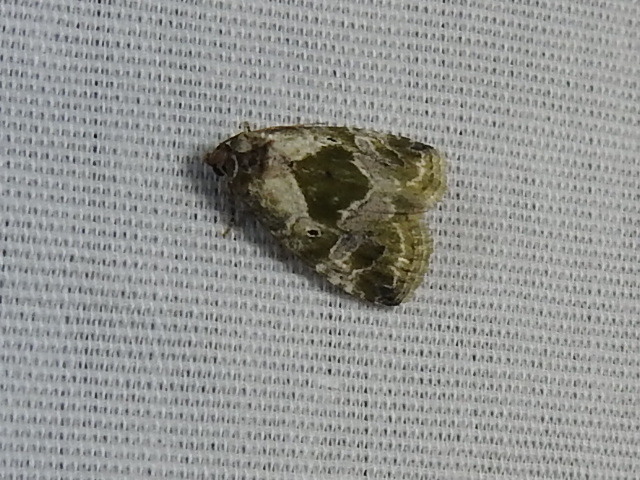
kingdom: Animalia
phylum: Arthropoda
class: Insecta
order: Lepidoptera
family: Noctuidae
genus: Maliattha
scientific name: Maliattha synochitis
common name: Black-dotted glyph
